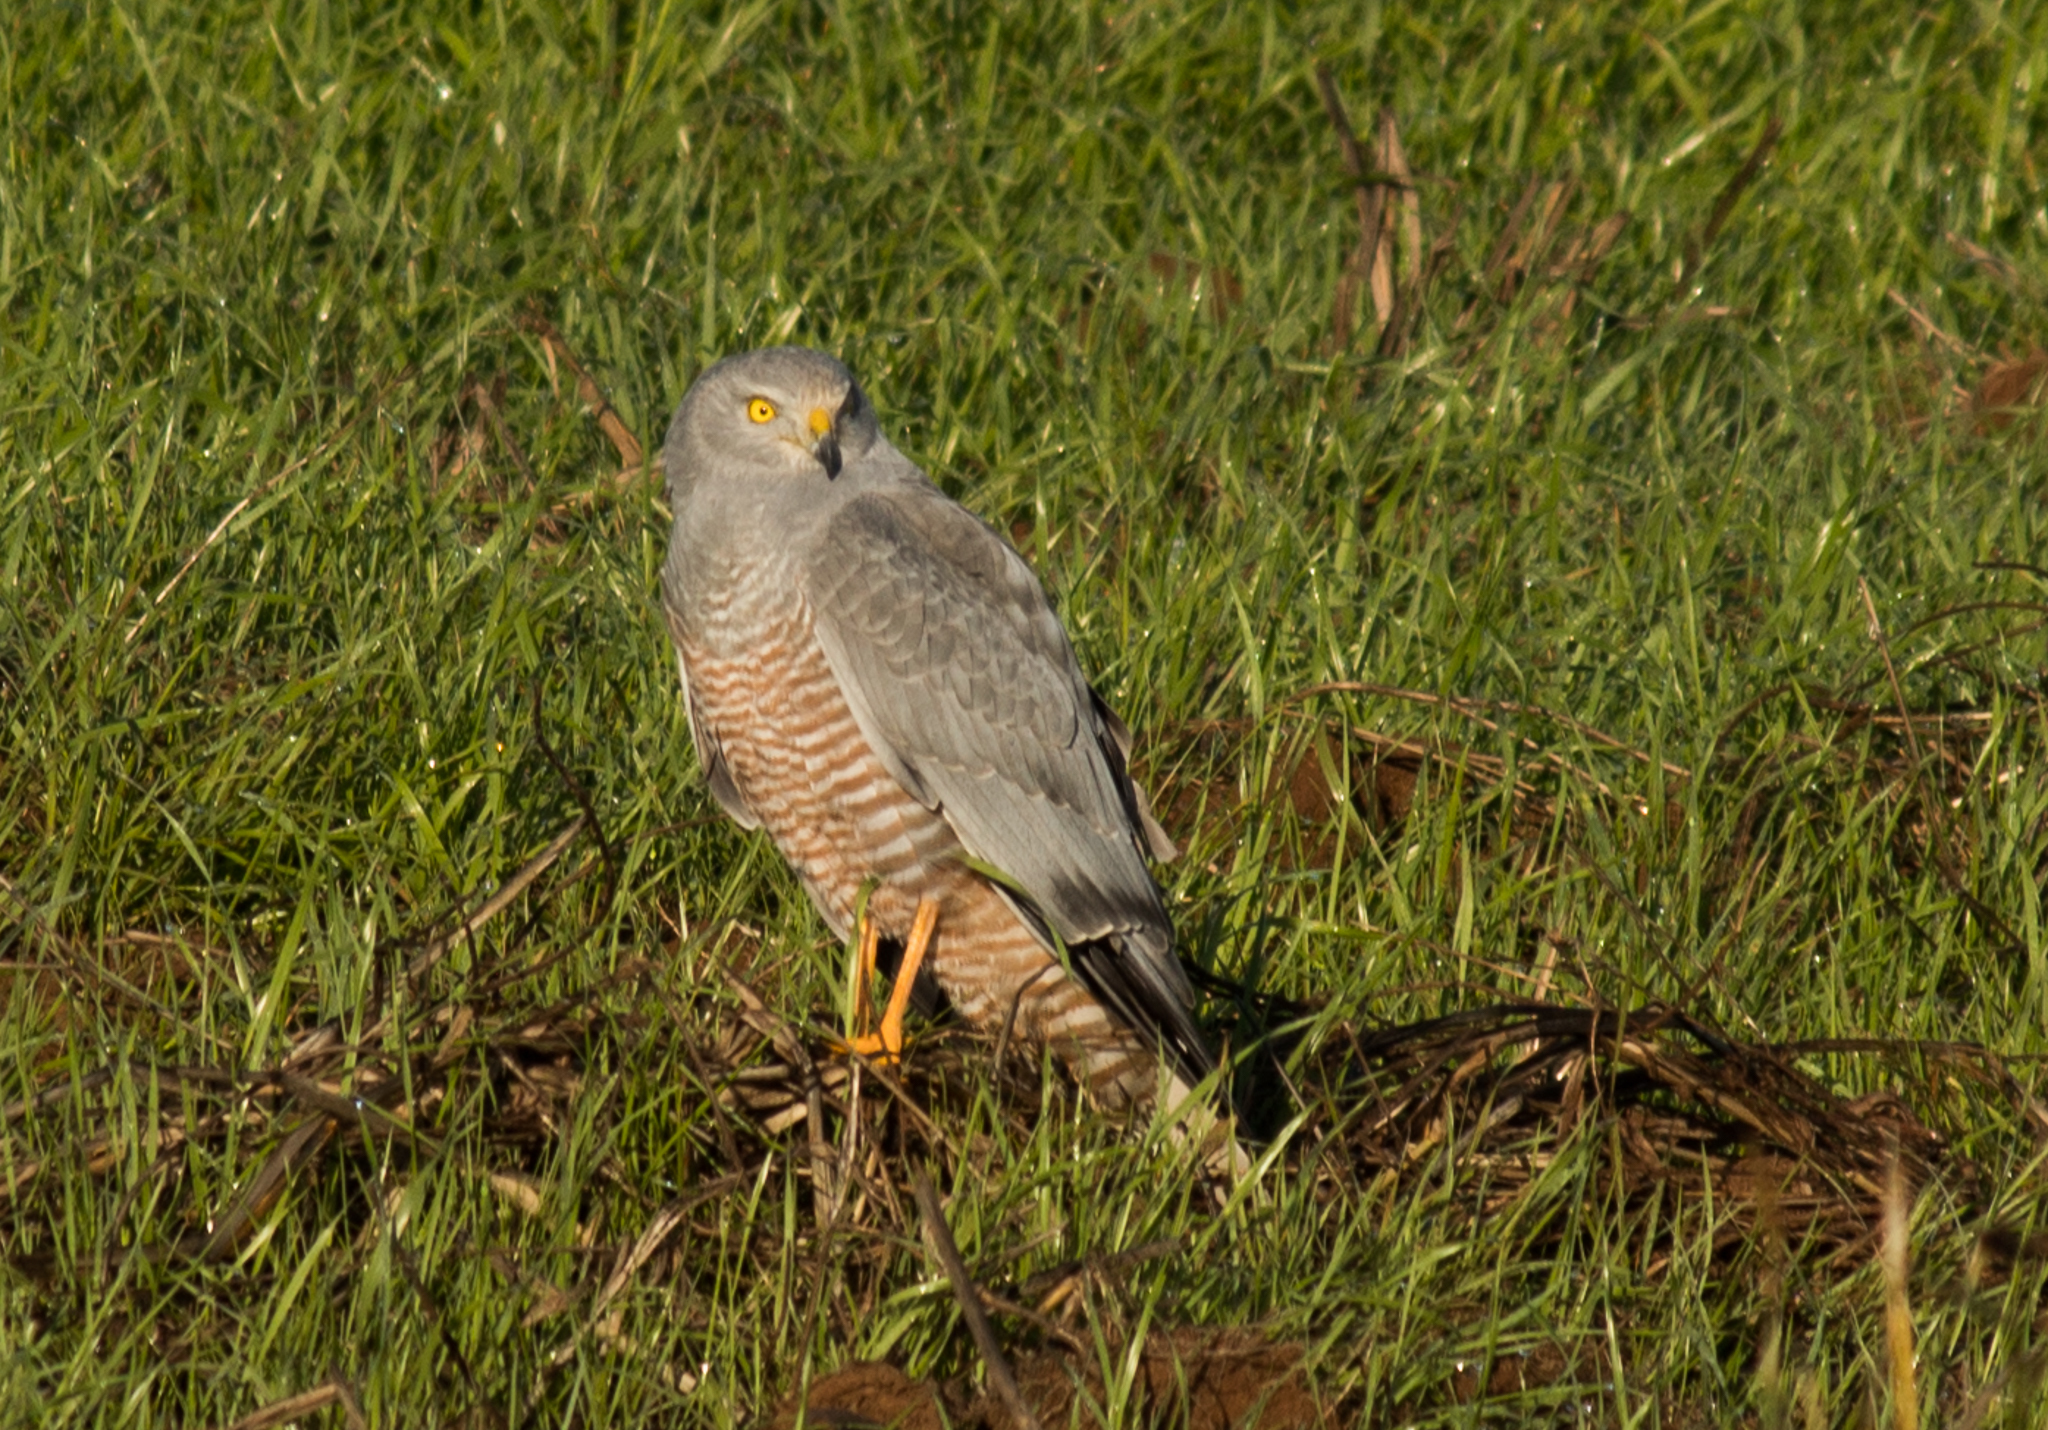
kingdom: Animalia
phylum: Chordata
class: Aves
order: Accipitriformes
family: Accipitridae
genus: Circus
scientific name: Circus cinereus
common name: Cinereous harrier
